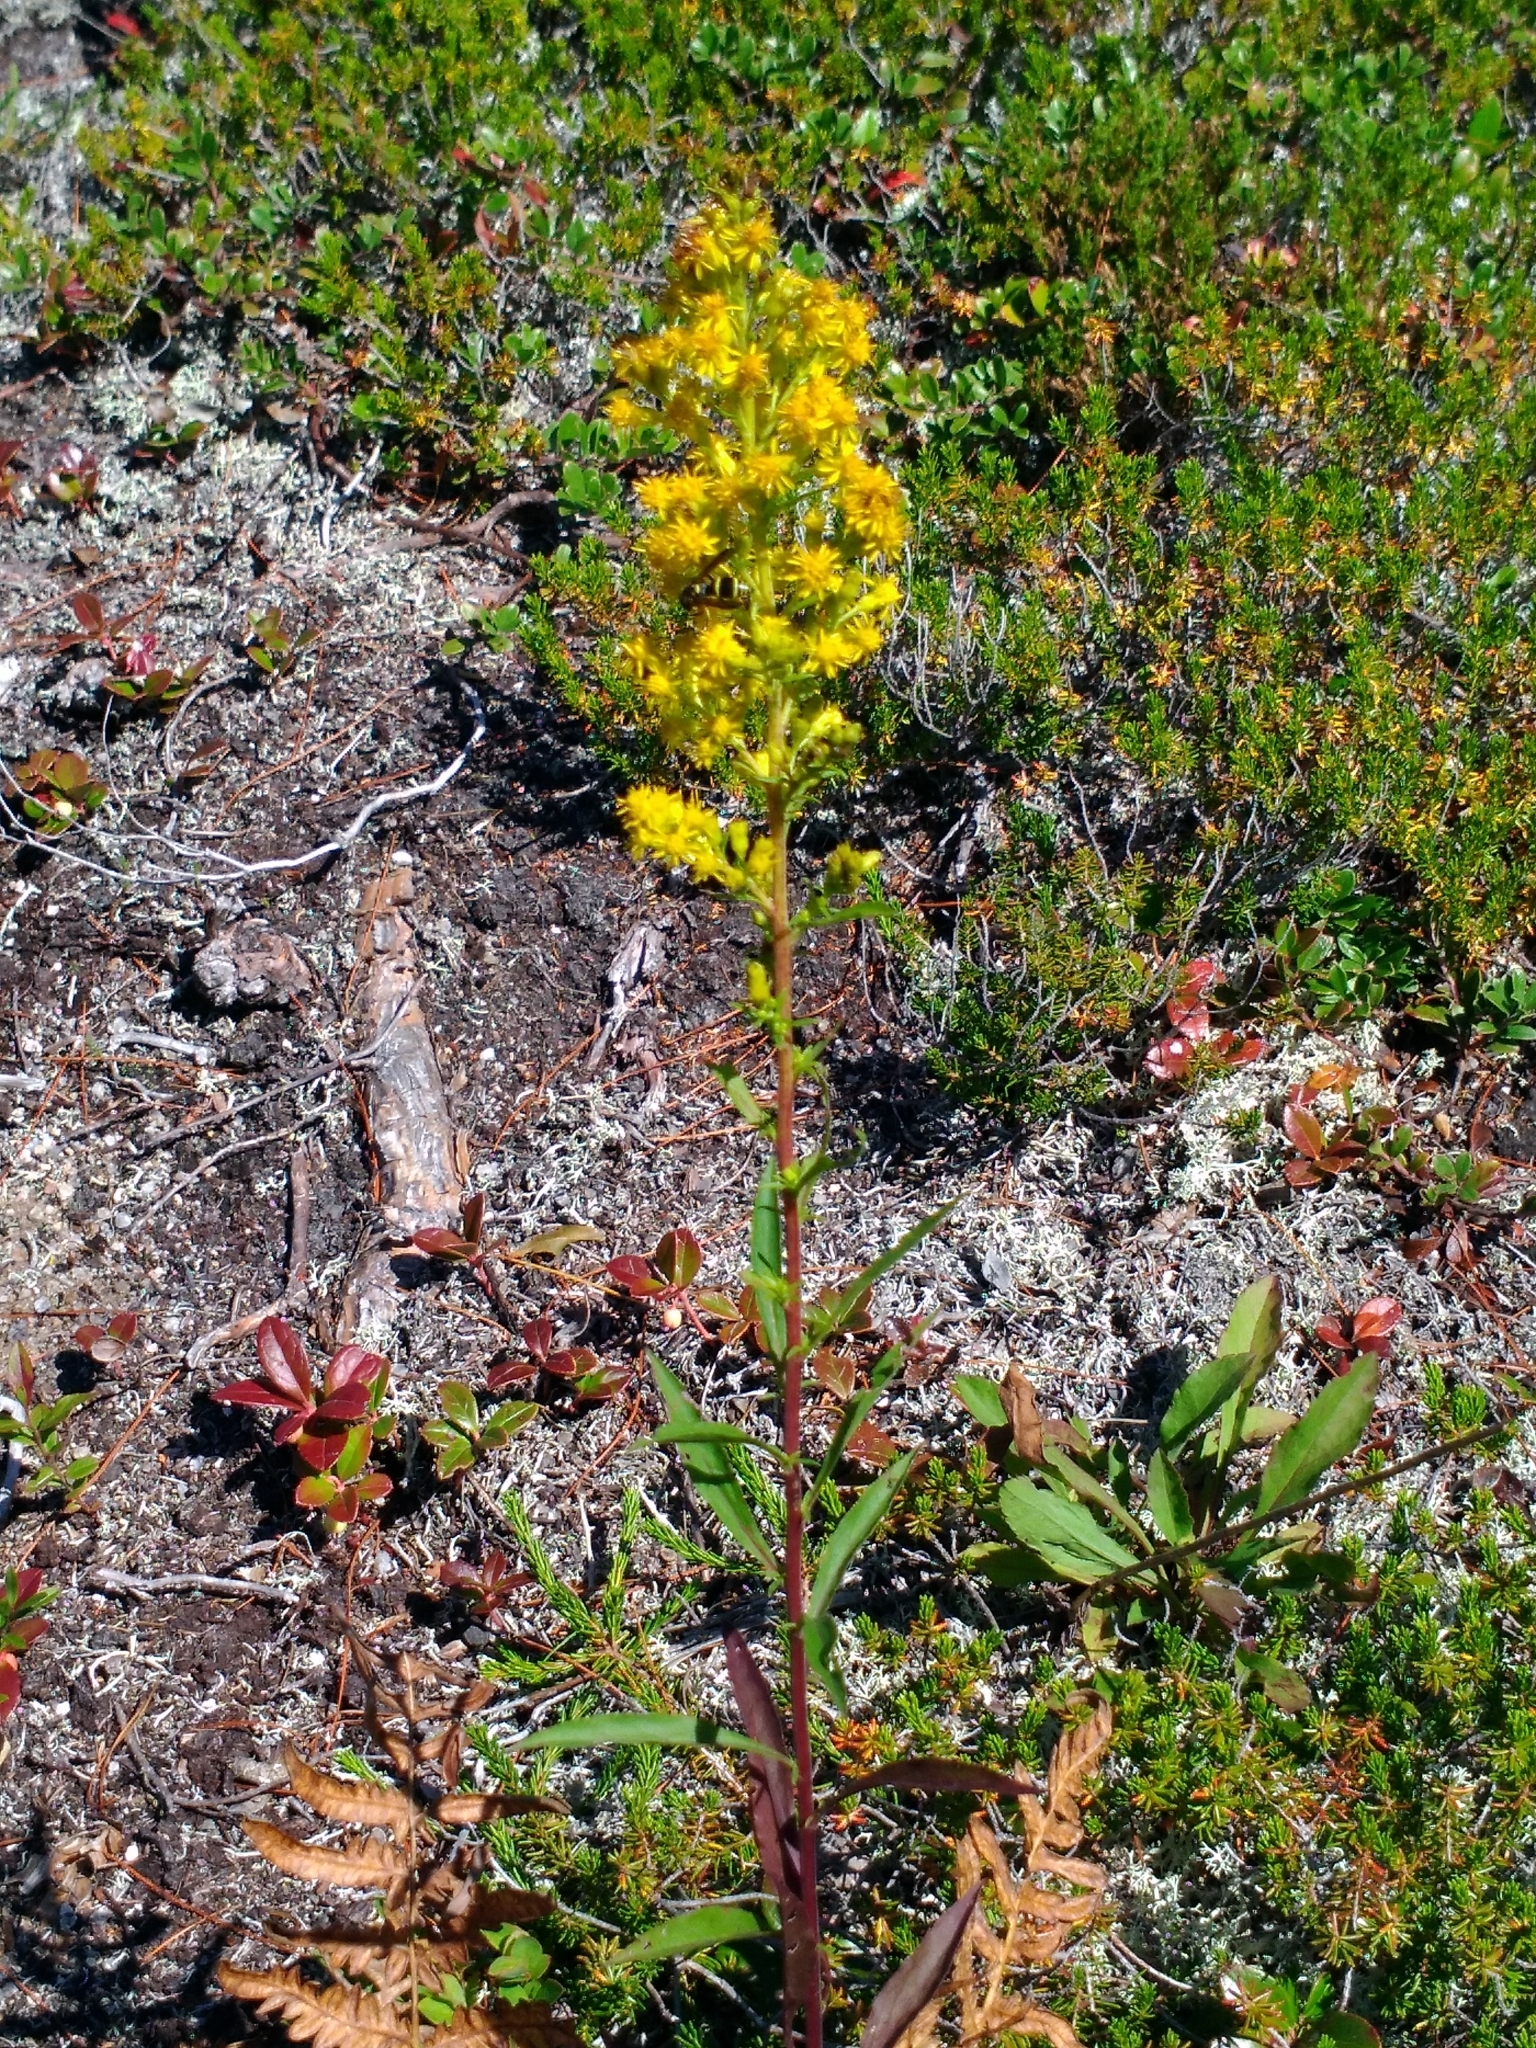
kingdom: Plantae
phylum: Tracheophyta
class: Magnoliopsida
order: Asterales
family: Asteraceae
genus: Solidago
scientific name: Solidago puberula
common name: Downy goldenrod
